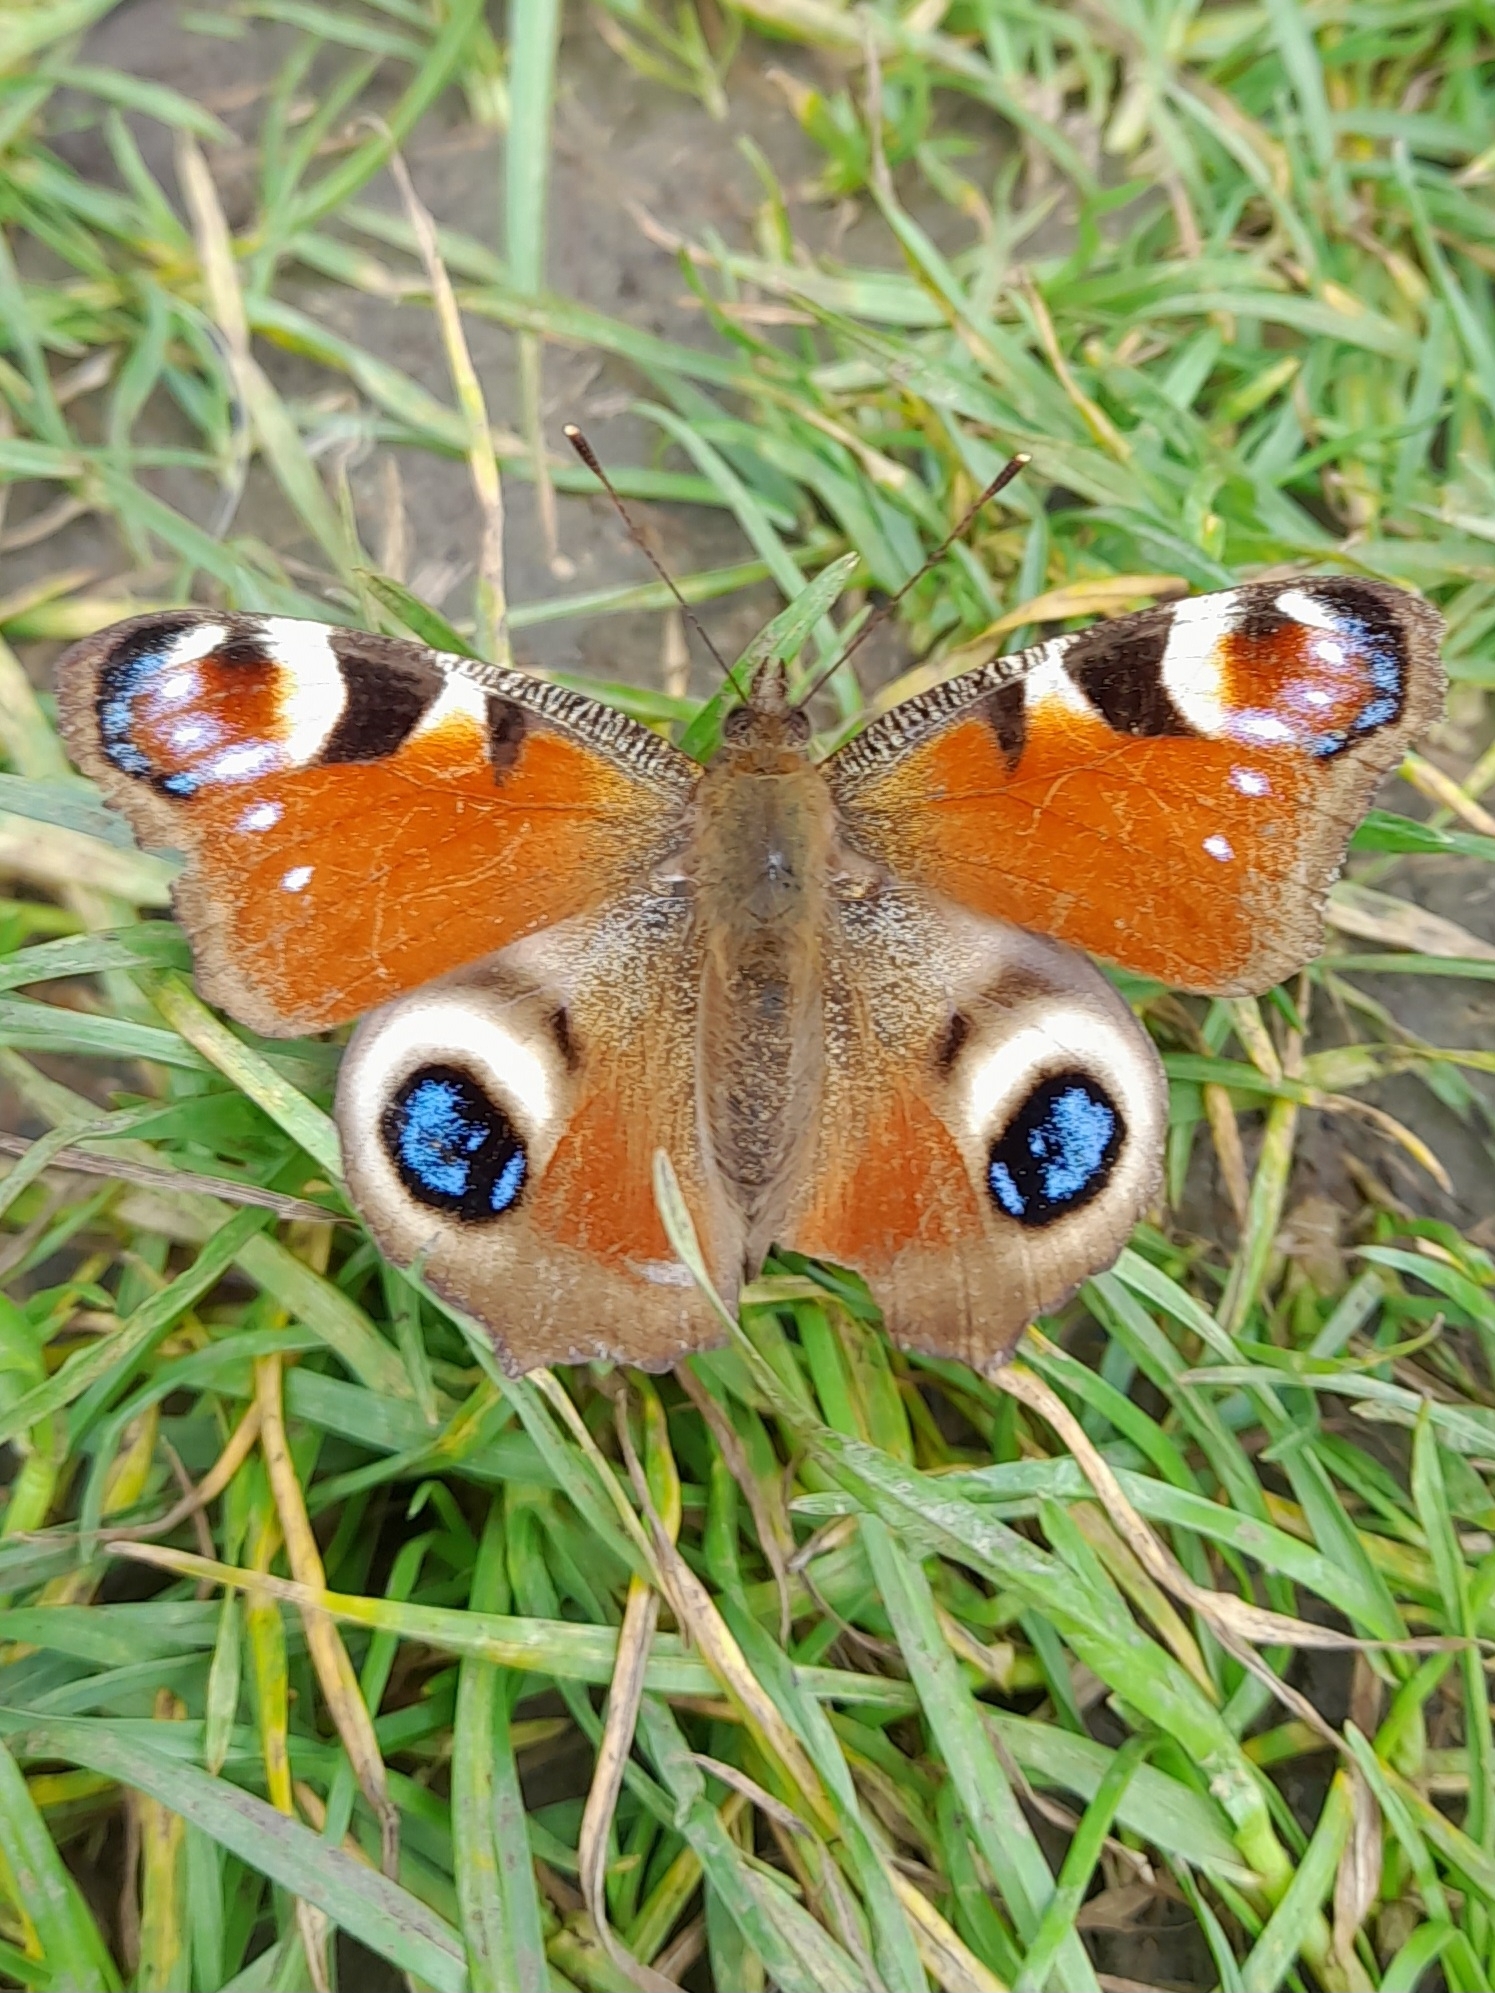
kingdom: Animalia
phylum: Arthropoda
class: Insecta
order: Lepidoptera
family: Nymphalidae
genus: Aglais
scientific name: Aglais io
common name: Peacock
